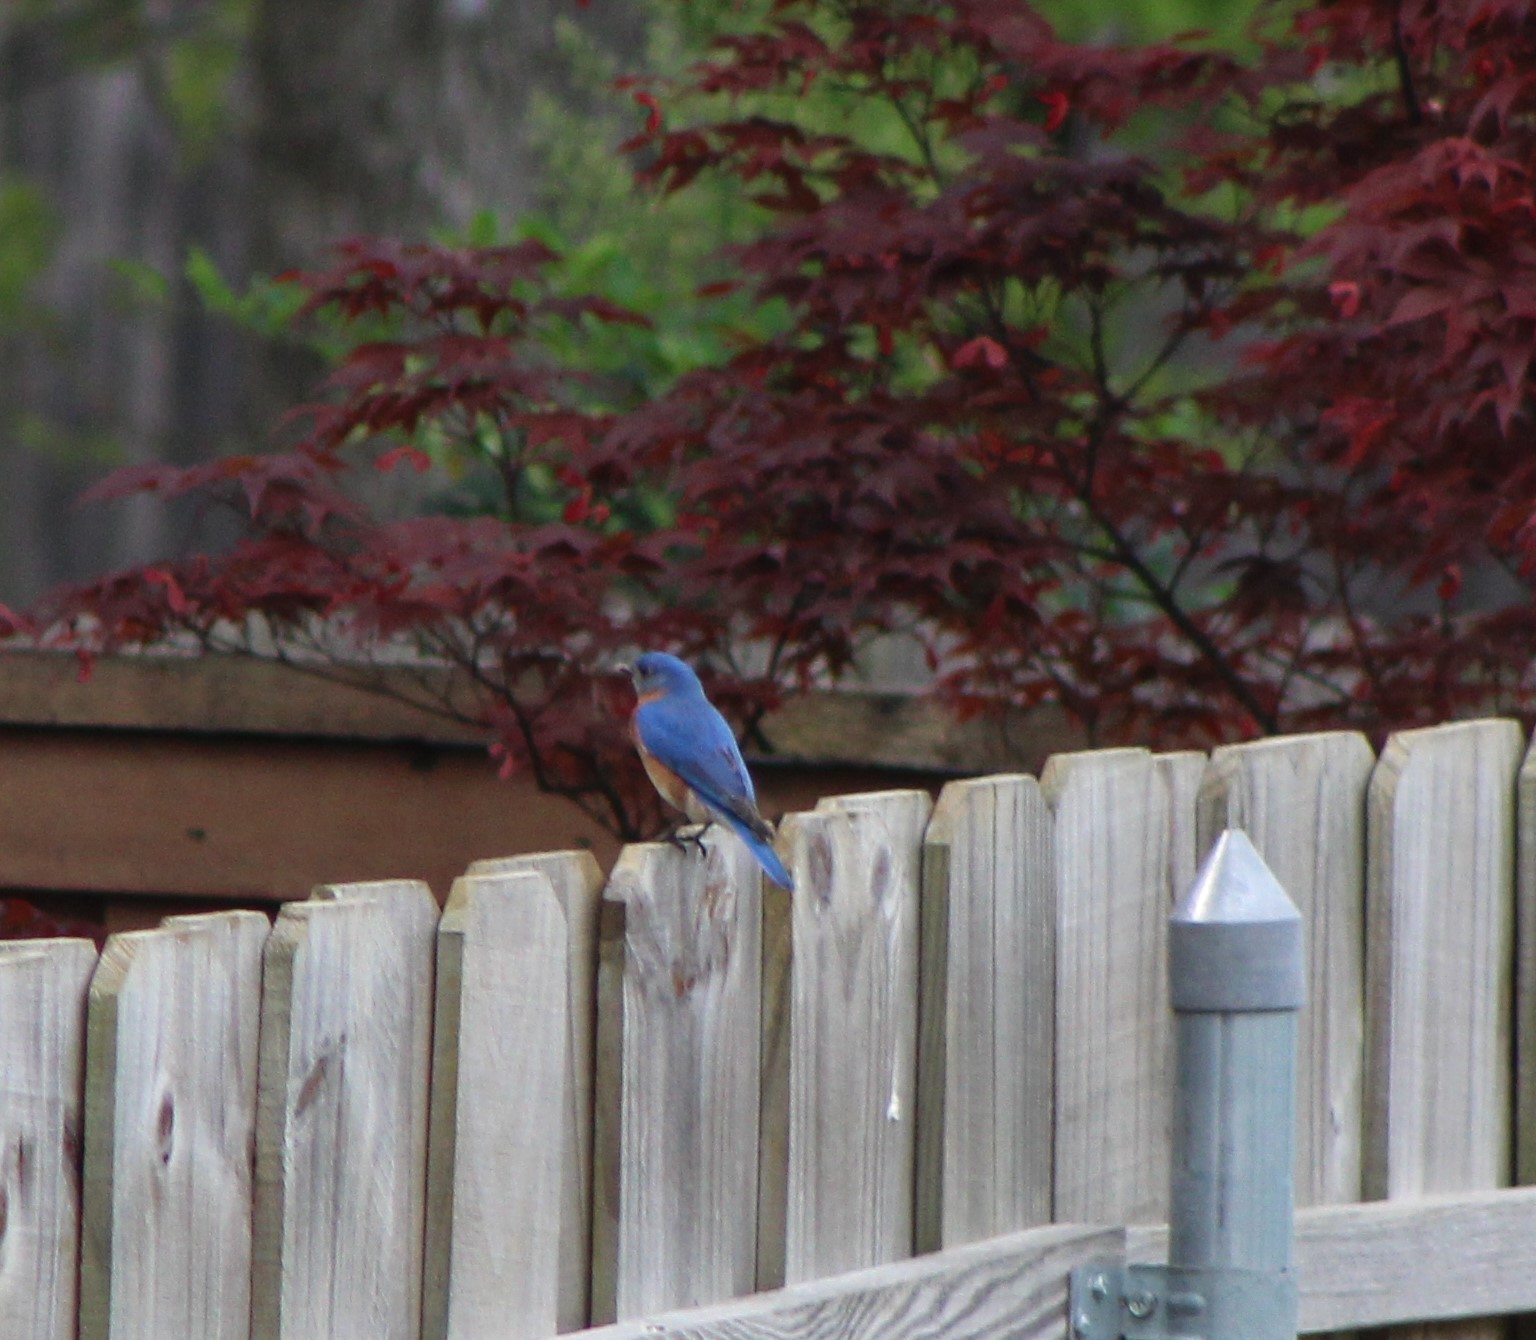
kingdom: Animalia
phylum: Chordata
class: Aves
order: Passeriformes
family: Turdidae
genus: Sialia
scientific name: Sialia sialis
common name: Eastern bluebird
